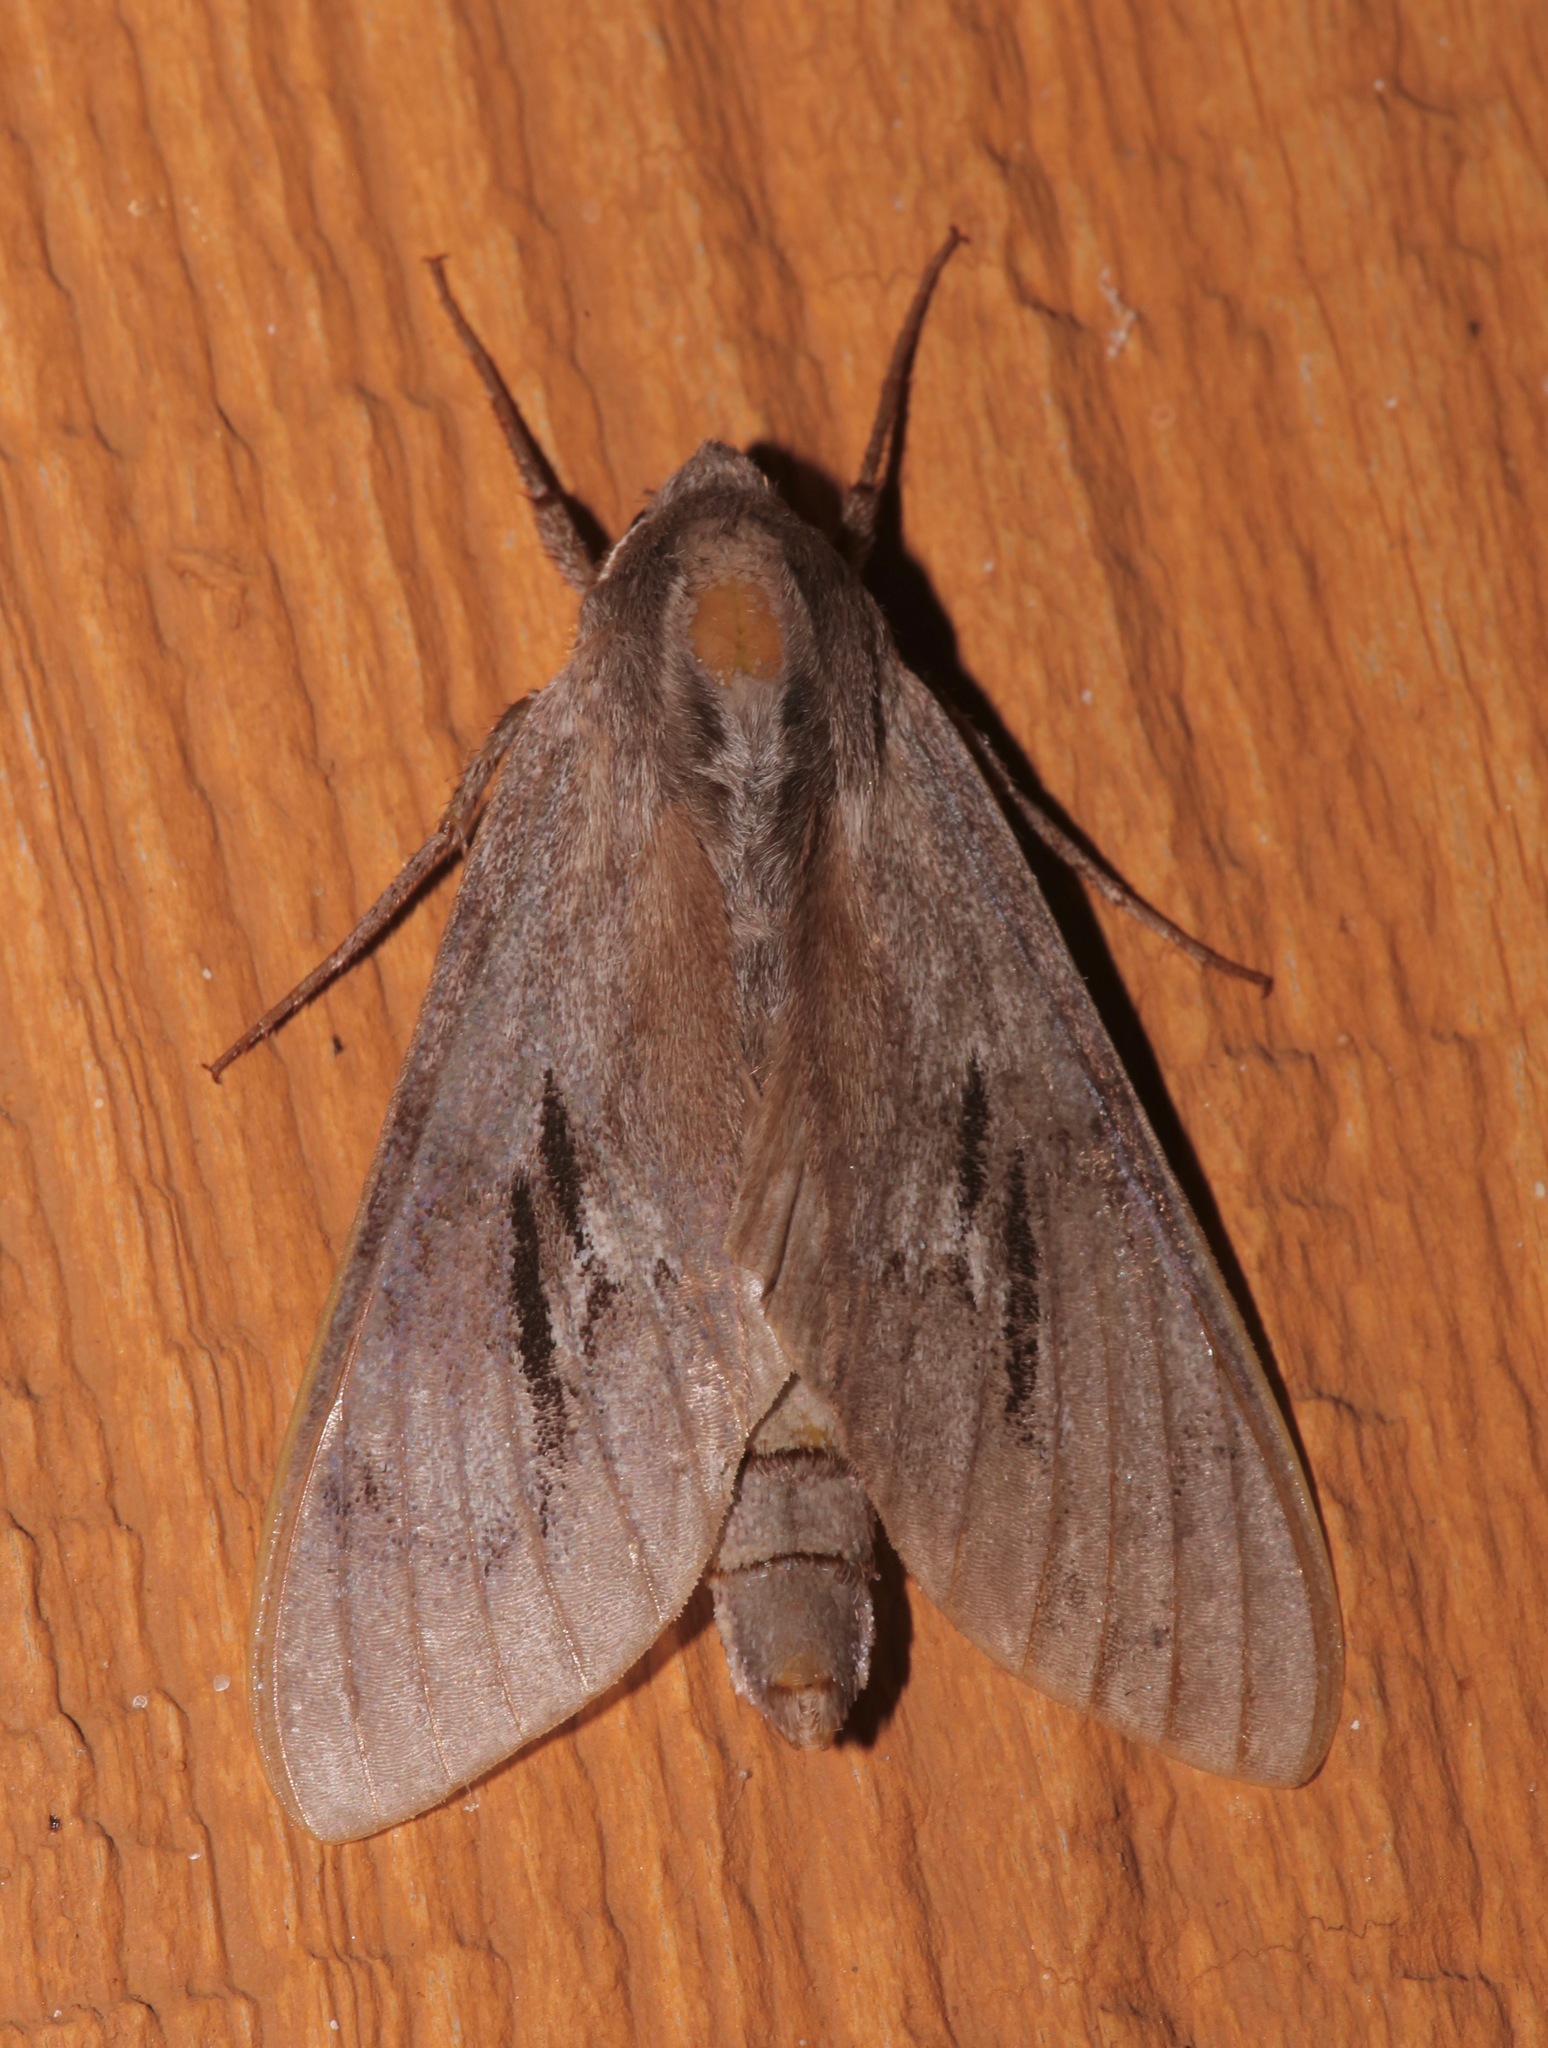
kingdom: Animalia
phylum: Arthropoda
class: Insecta
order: Lepidoptera
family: Sphingidae
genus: Lapara
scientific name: Lapara coniferarum
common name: Southern pine sphinx
